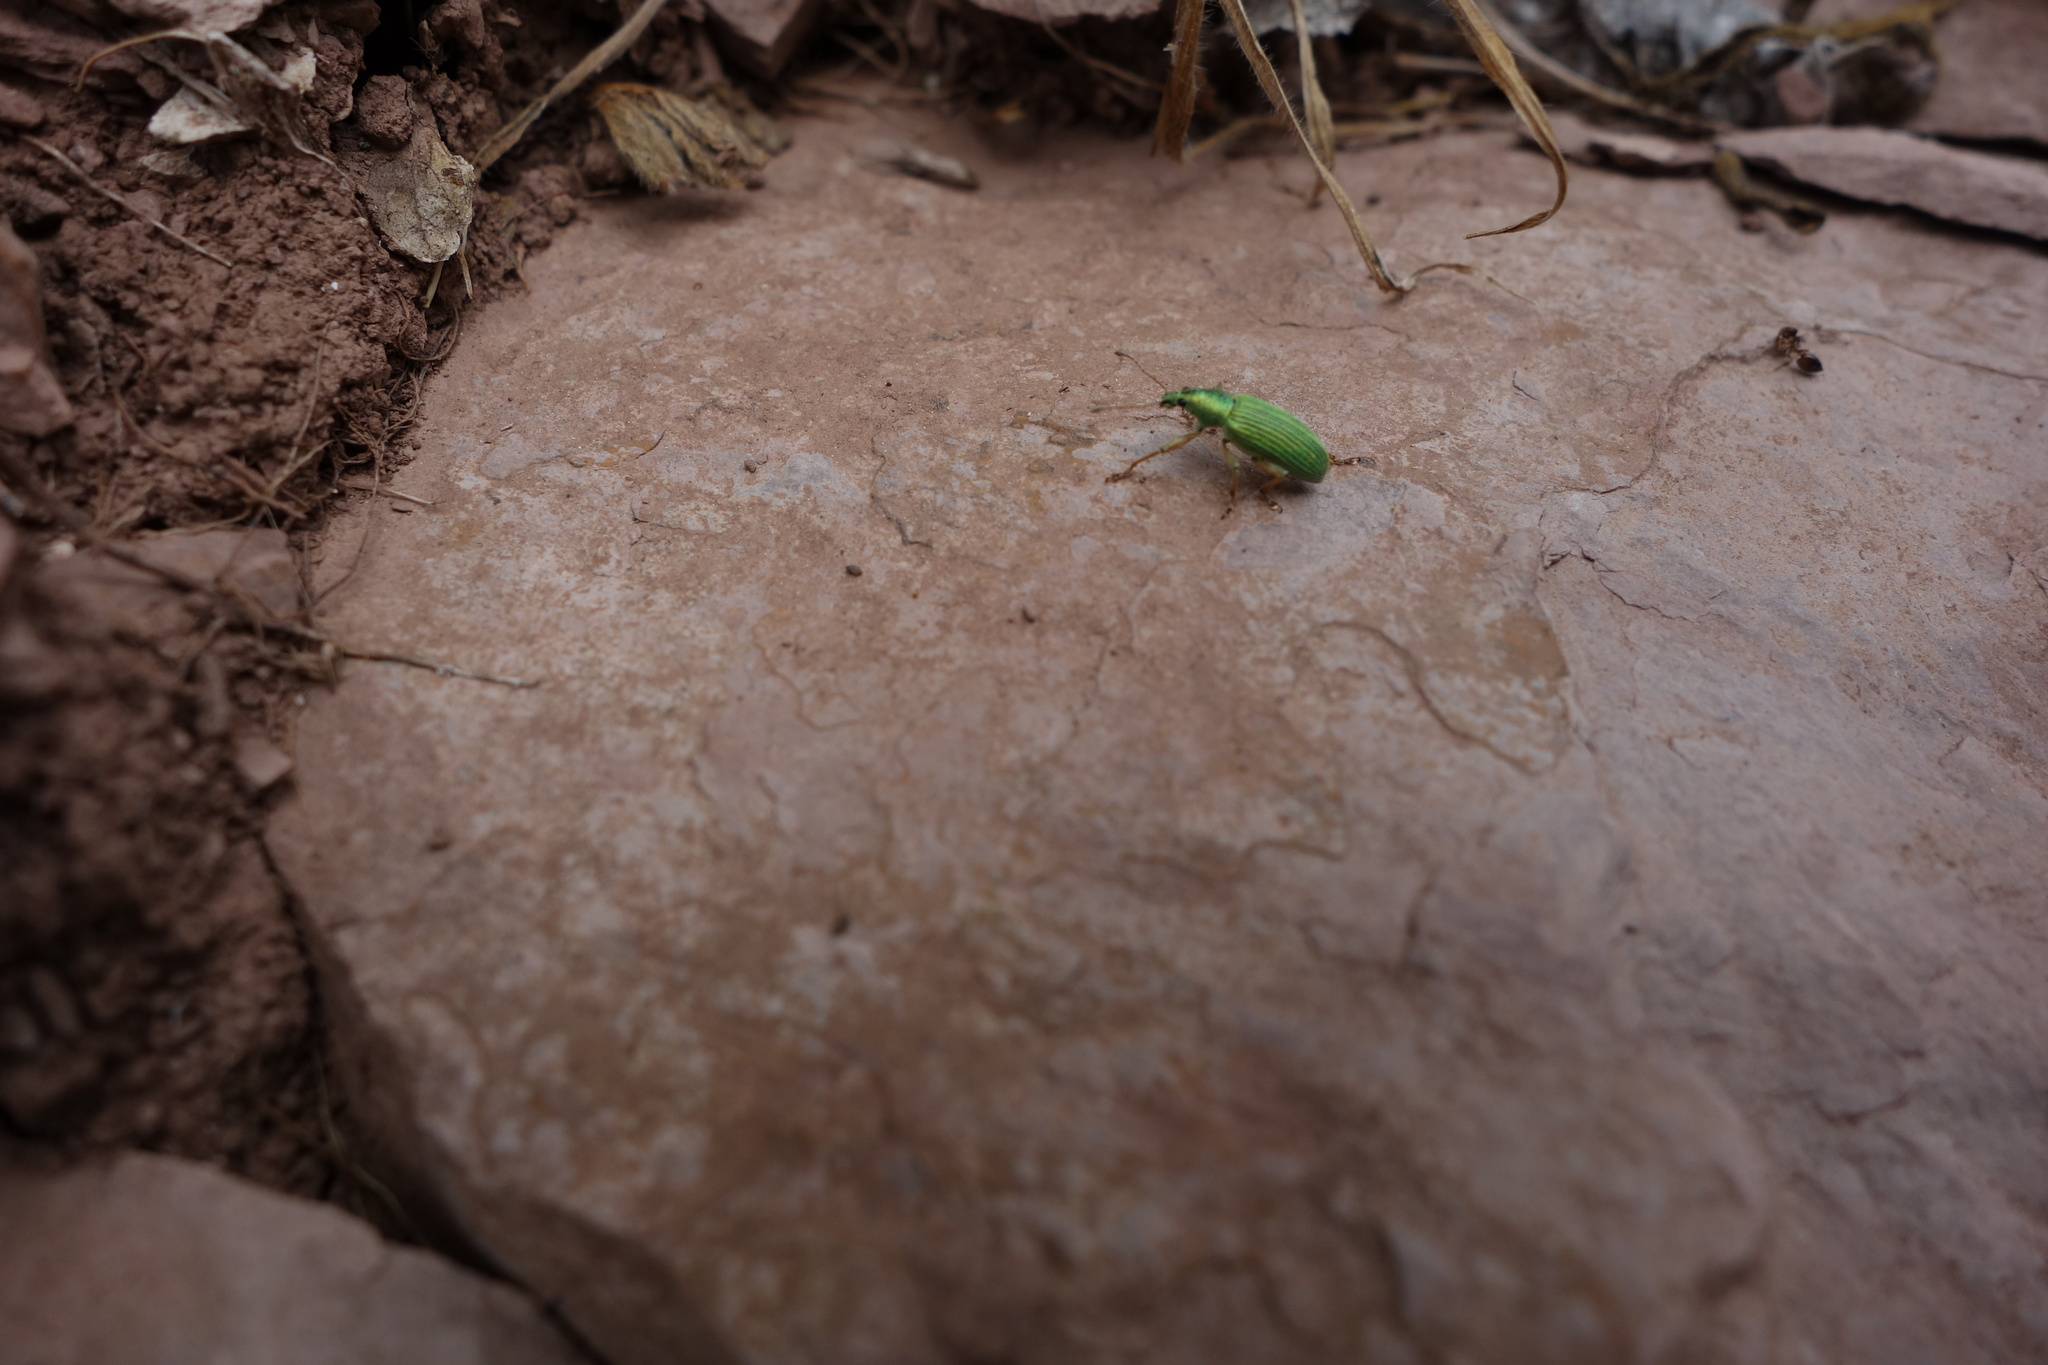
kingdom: Animalia
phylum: Arthropoda
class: Insecta
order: Coleoptera
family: Curculionidae
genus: Polydrusus
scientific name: Polydrusus formosus
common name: Weevil
